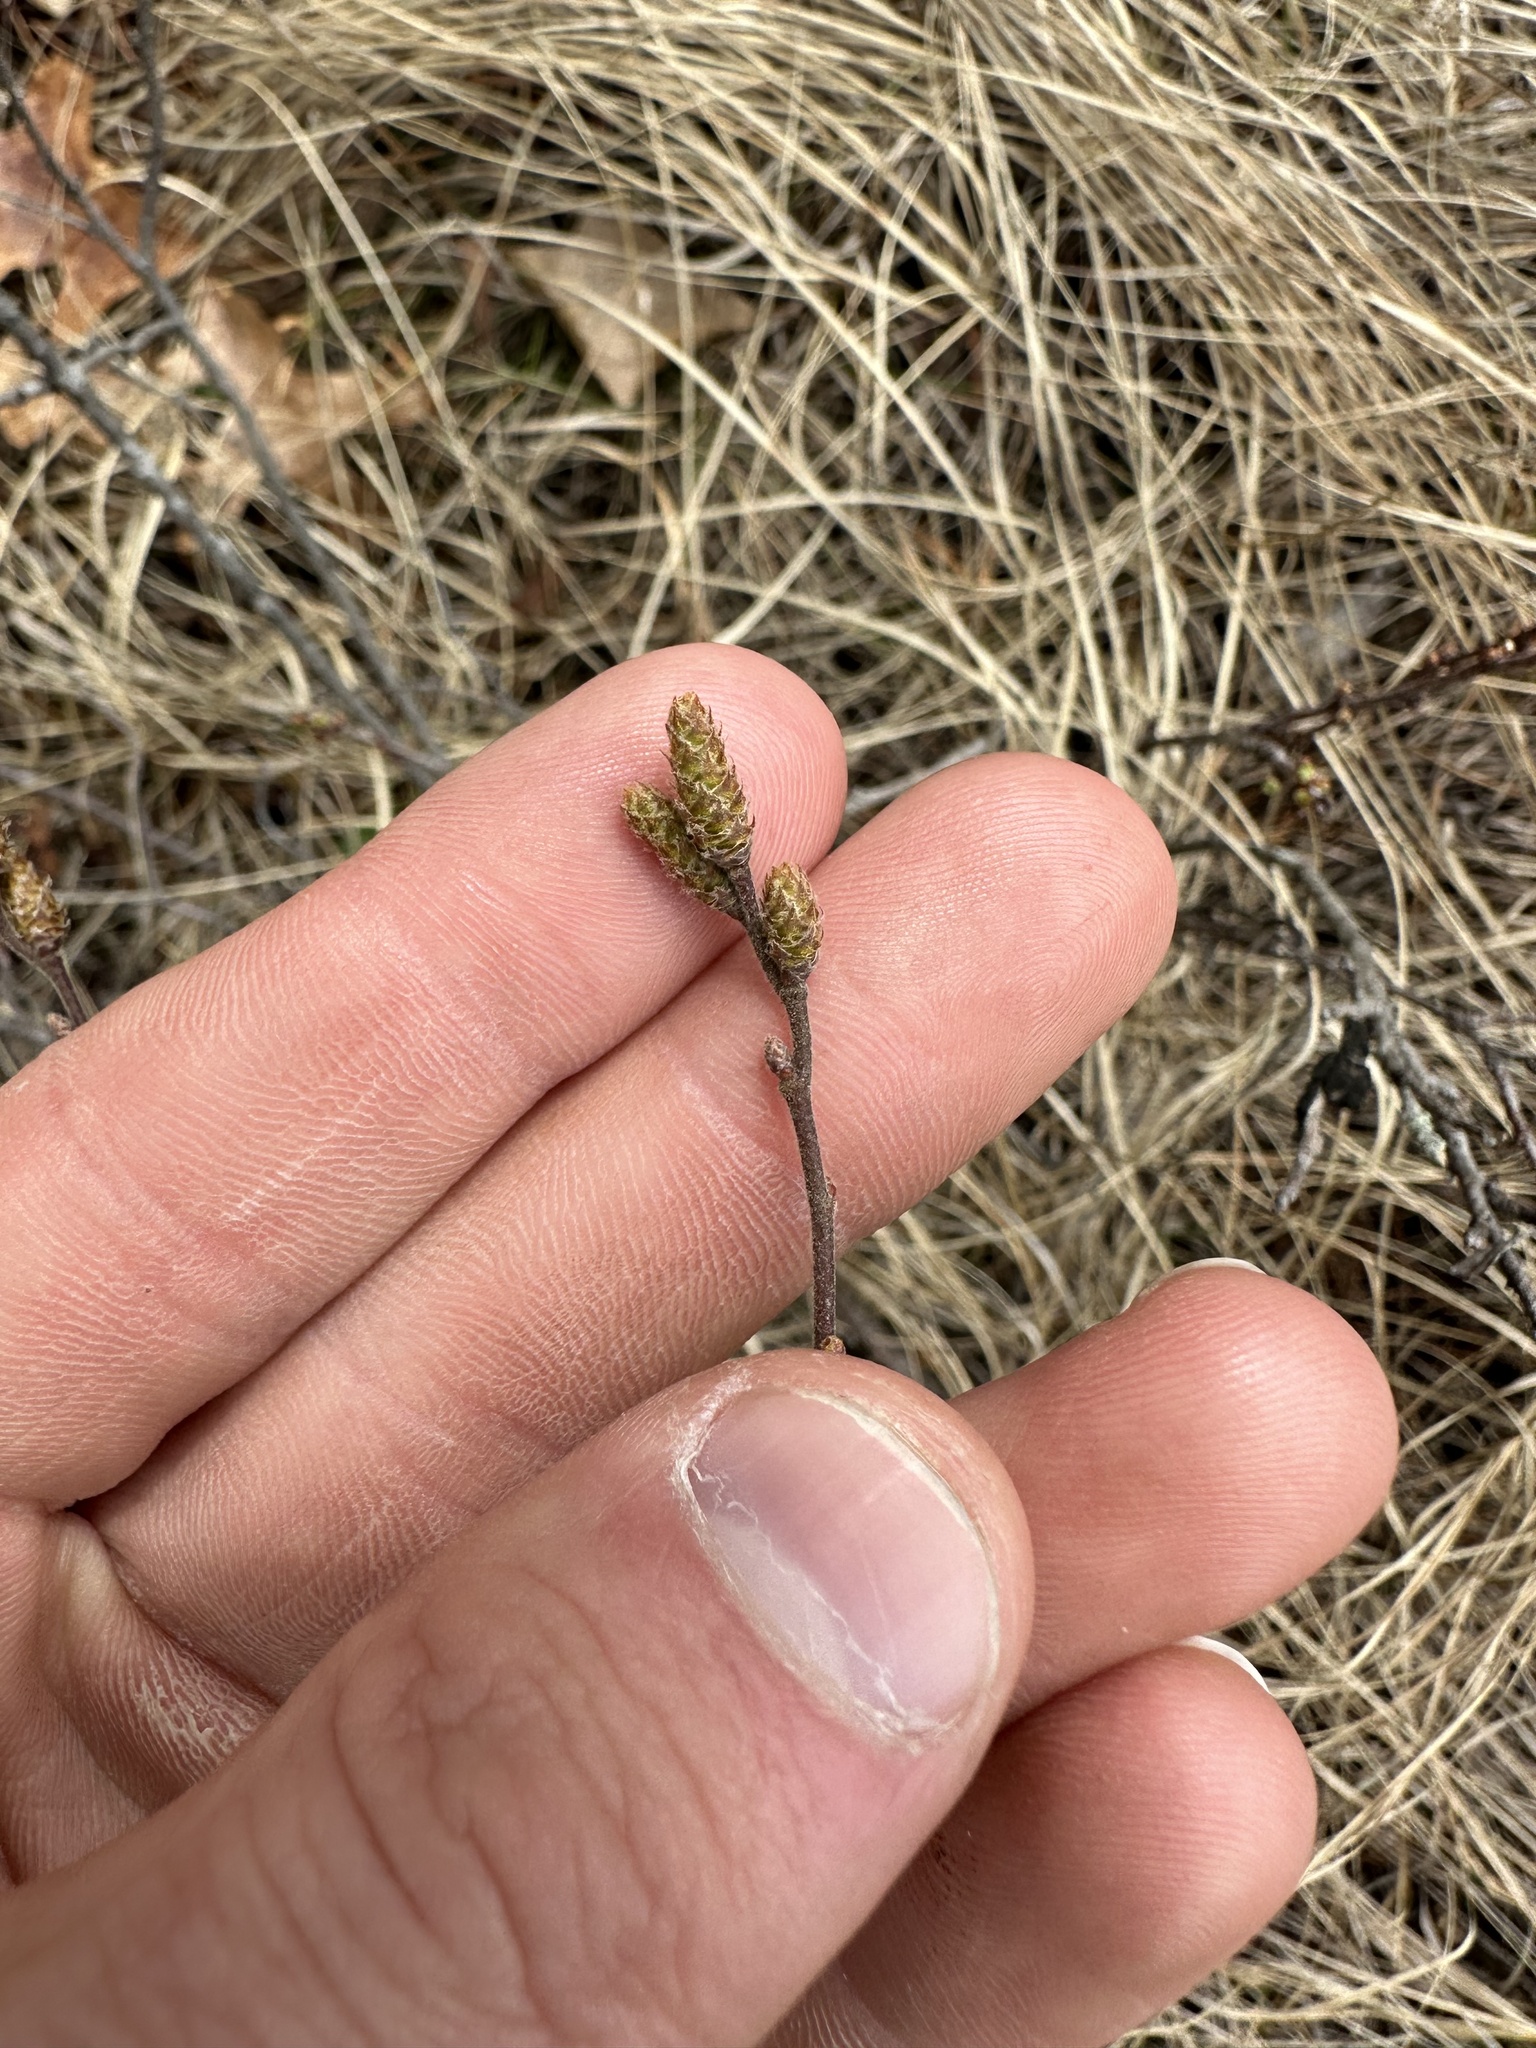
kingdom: Plantae
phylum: Tracheophyta
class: Magnoliopsida
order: Fagales
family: Myricaceae
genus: Comptonia
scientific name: Comptonia peregrina
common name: Sweet-fern
